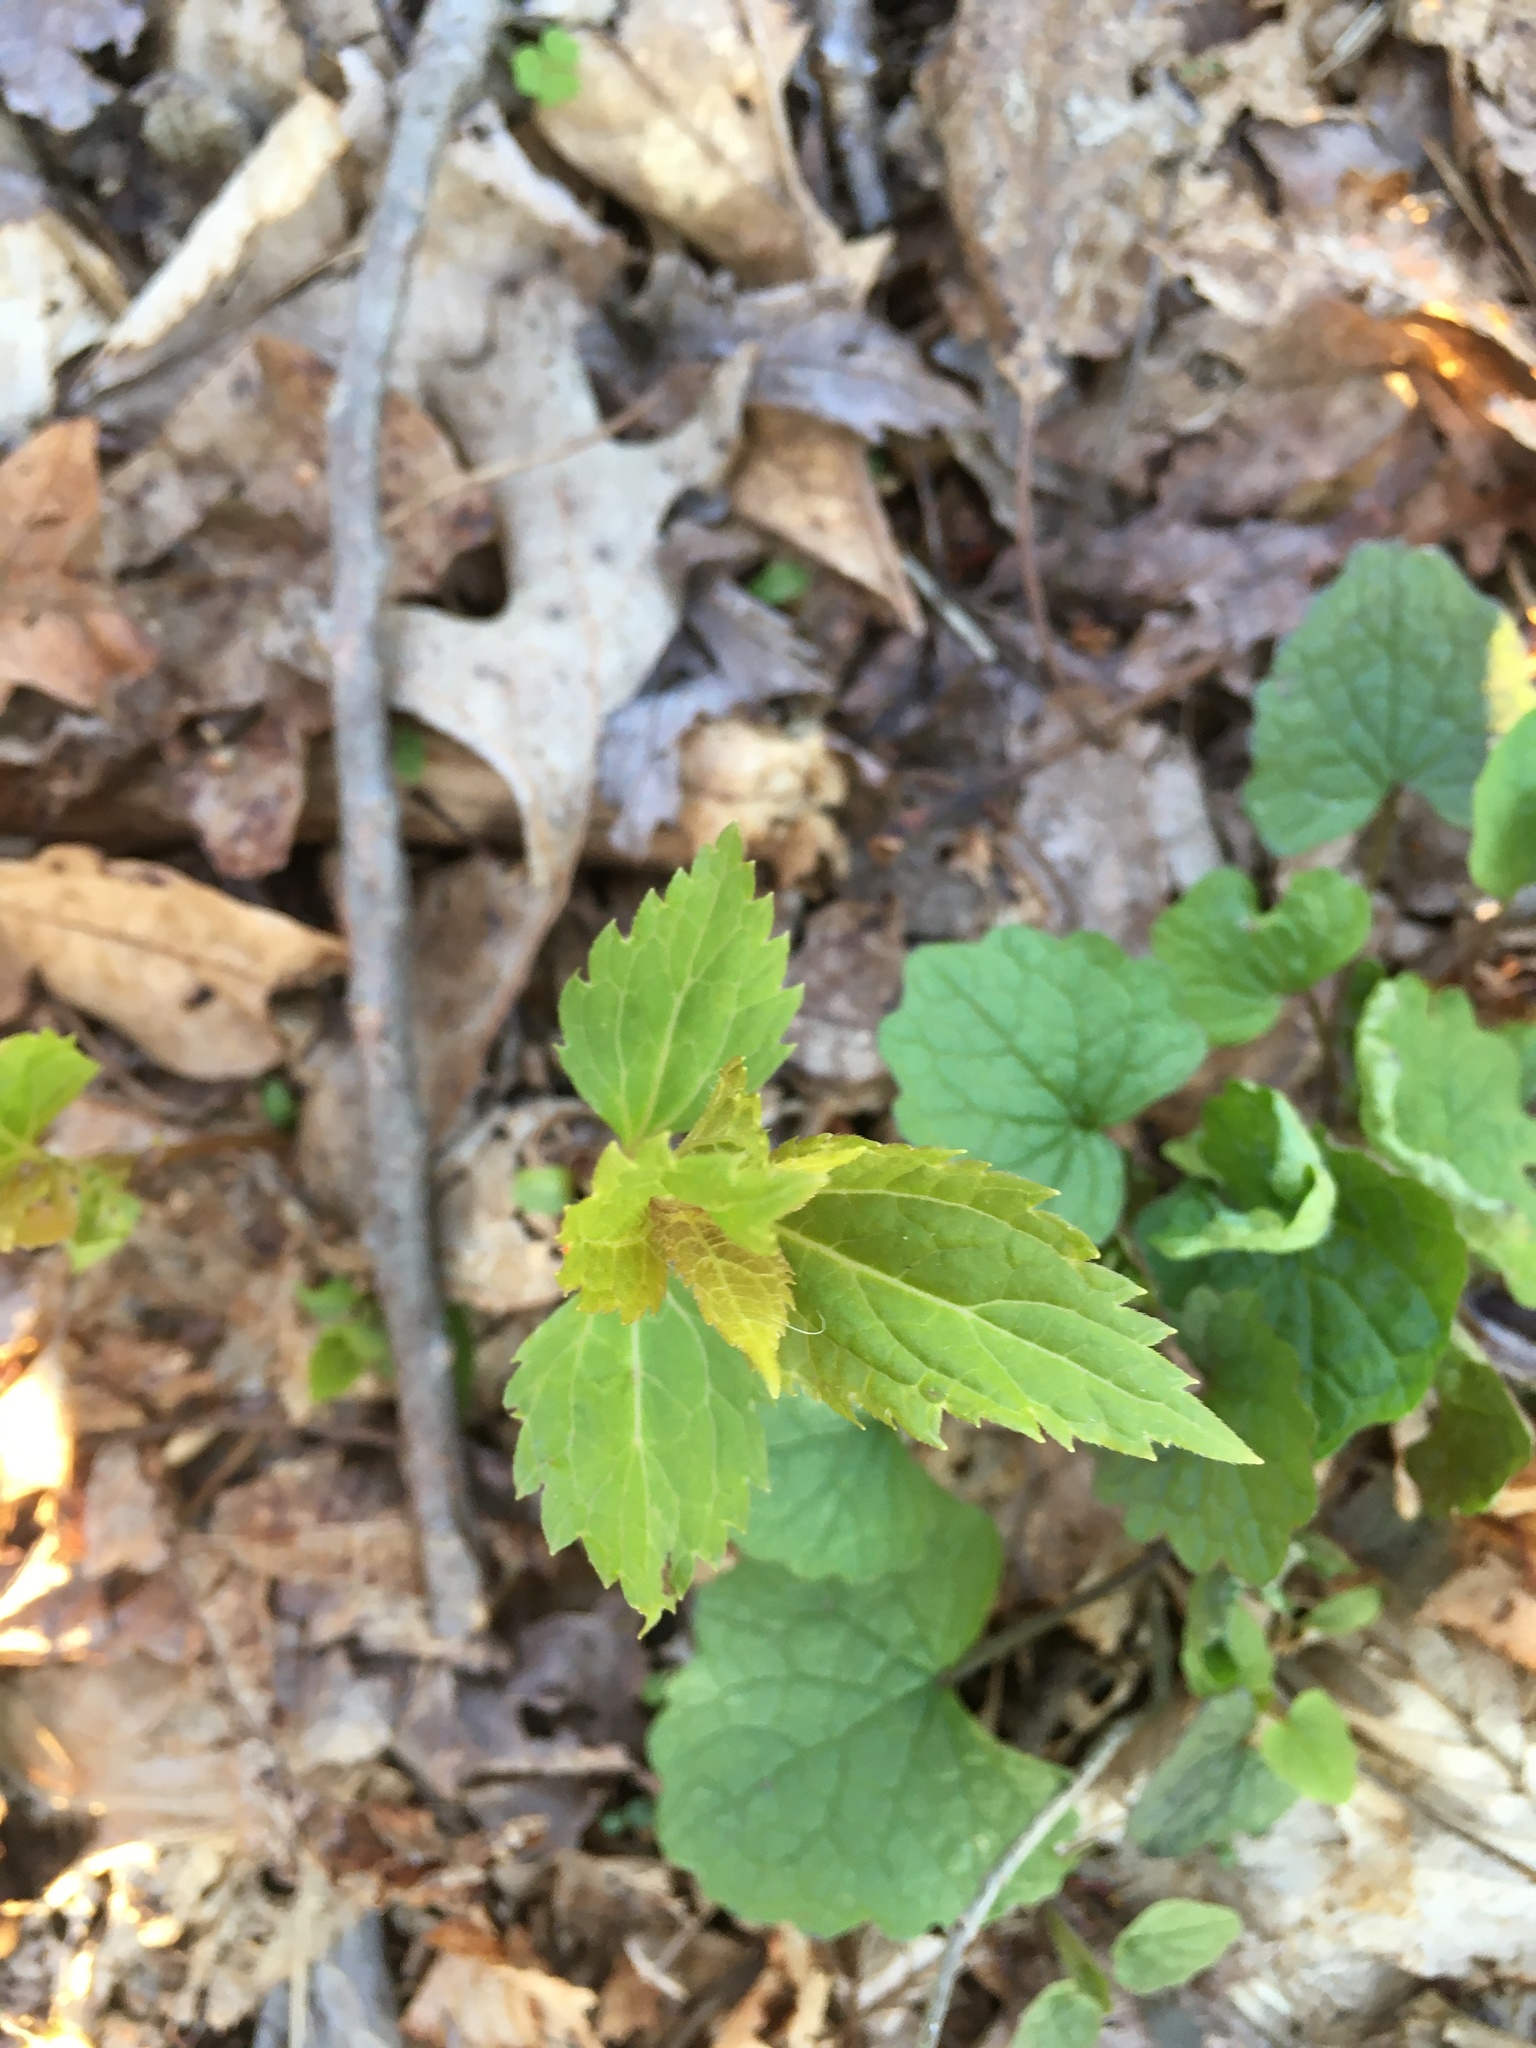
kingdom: Plantae
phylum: Tracheophyta
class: Magnoliopsida
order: Asterales
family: Asteraceae
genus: Ageratina
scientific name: Ageratina altissima
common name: White snakeroot
